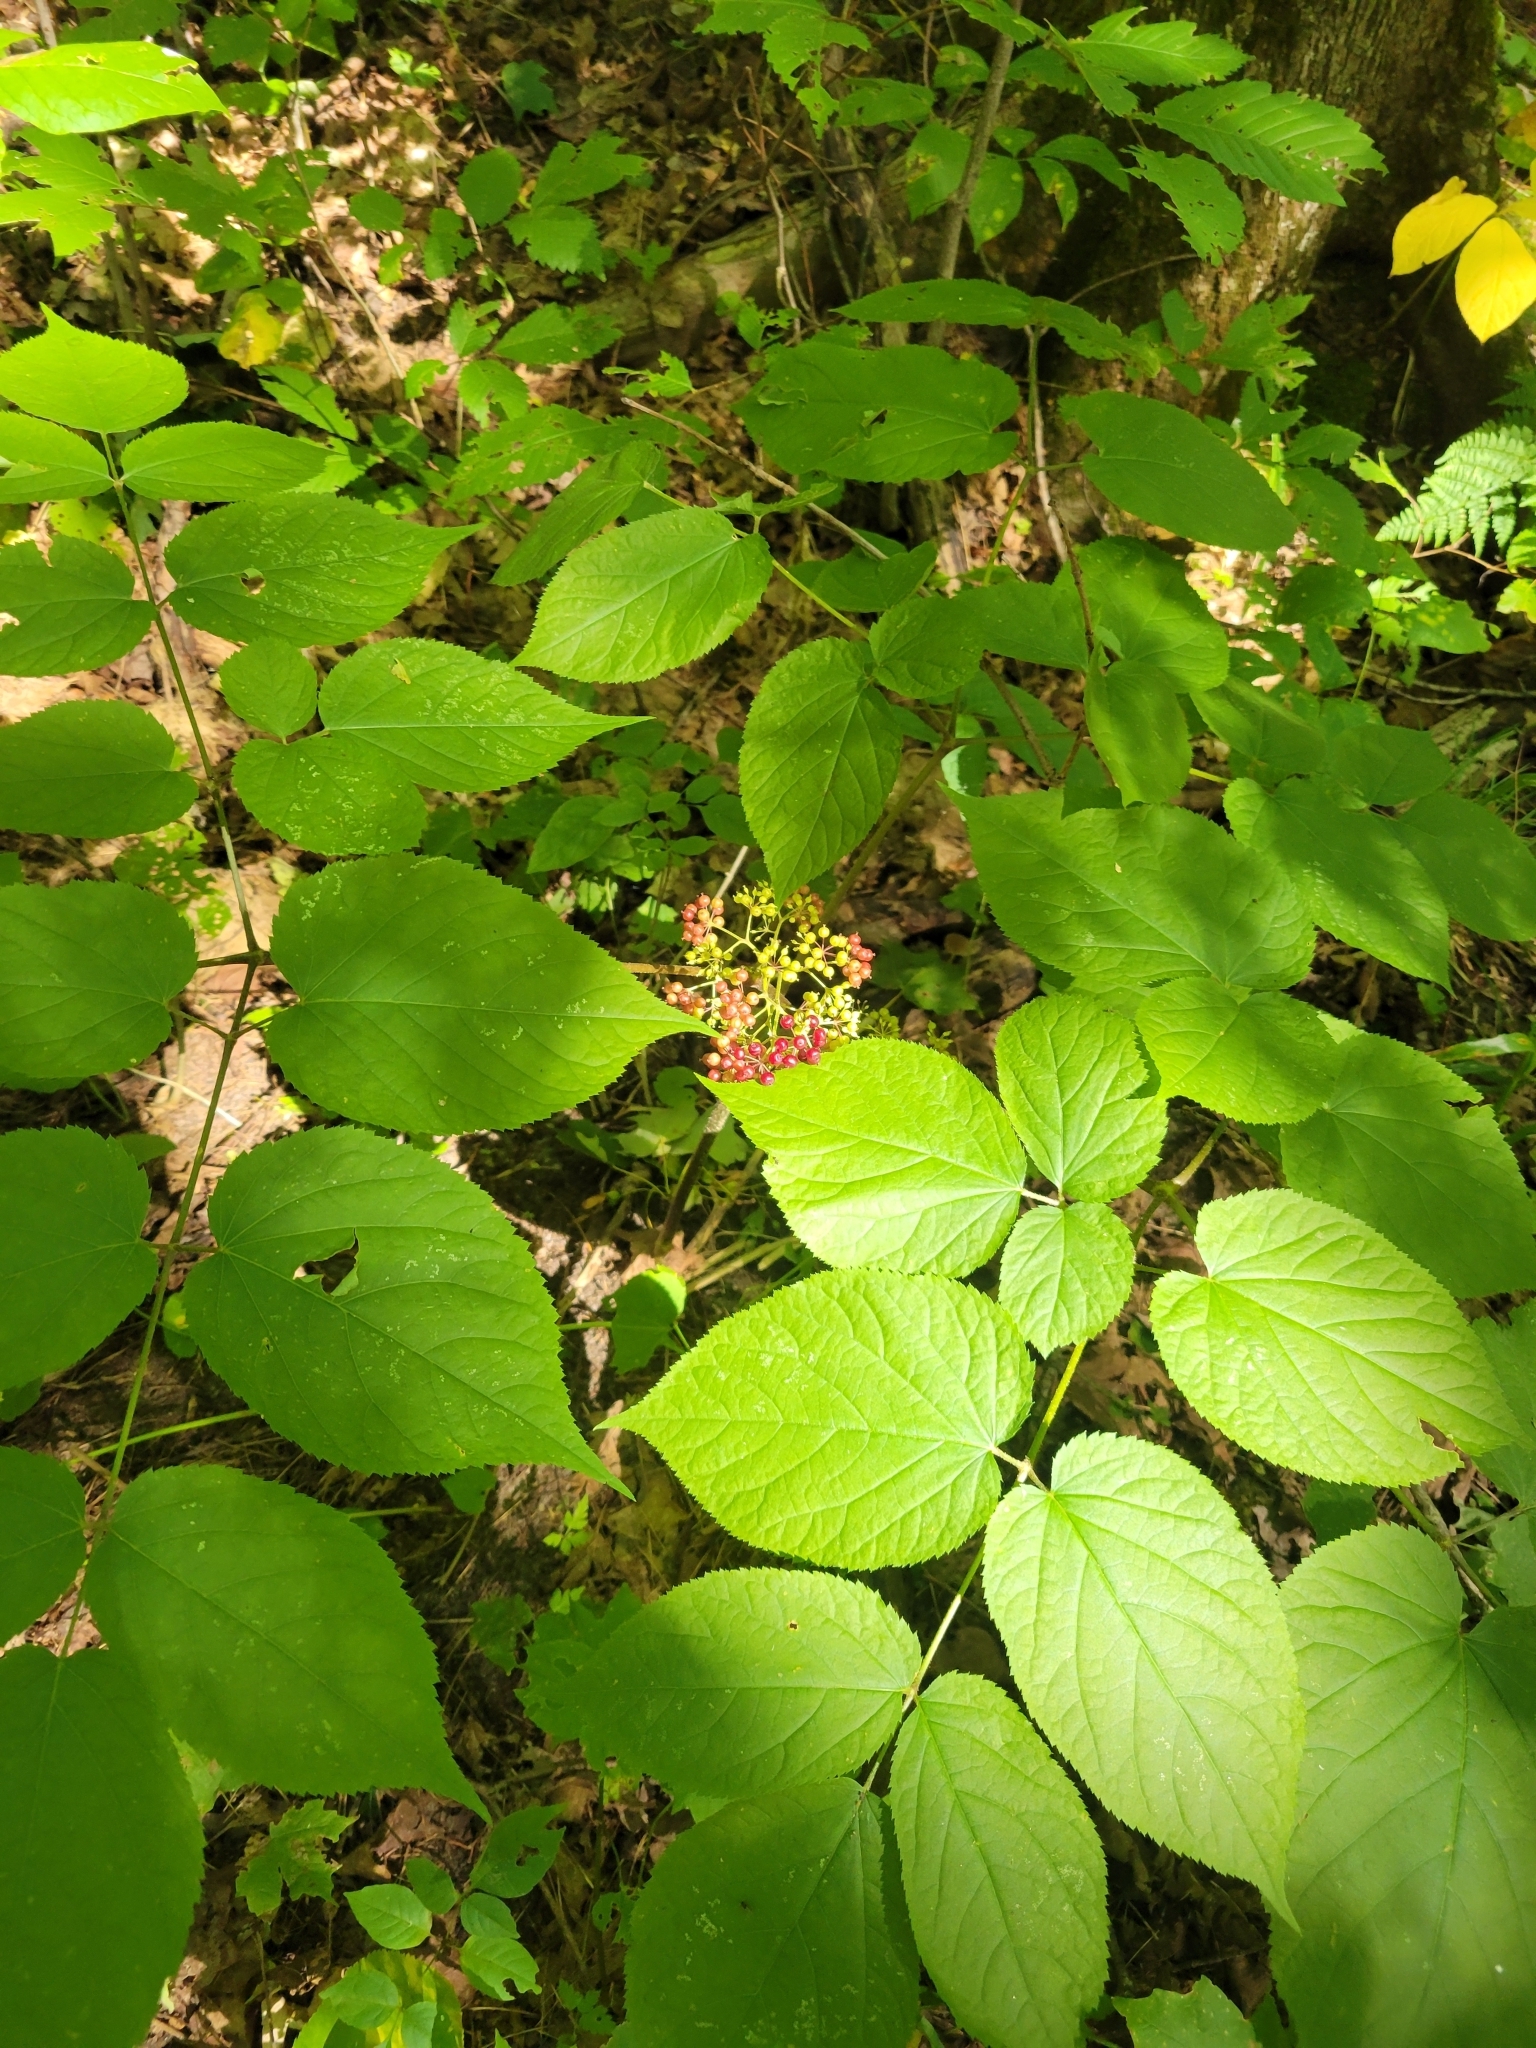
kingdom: Plantae
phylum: Tracheophyta
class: Magnoliopsida
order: Apiales
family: Araliaceae
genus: Aralia
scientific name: Aralia racemosa
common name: American-spikenard
